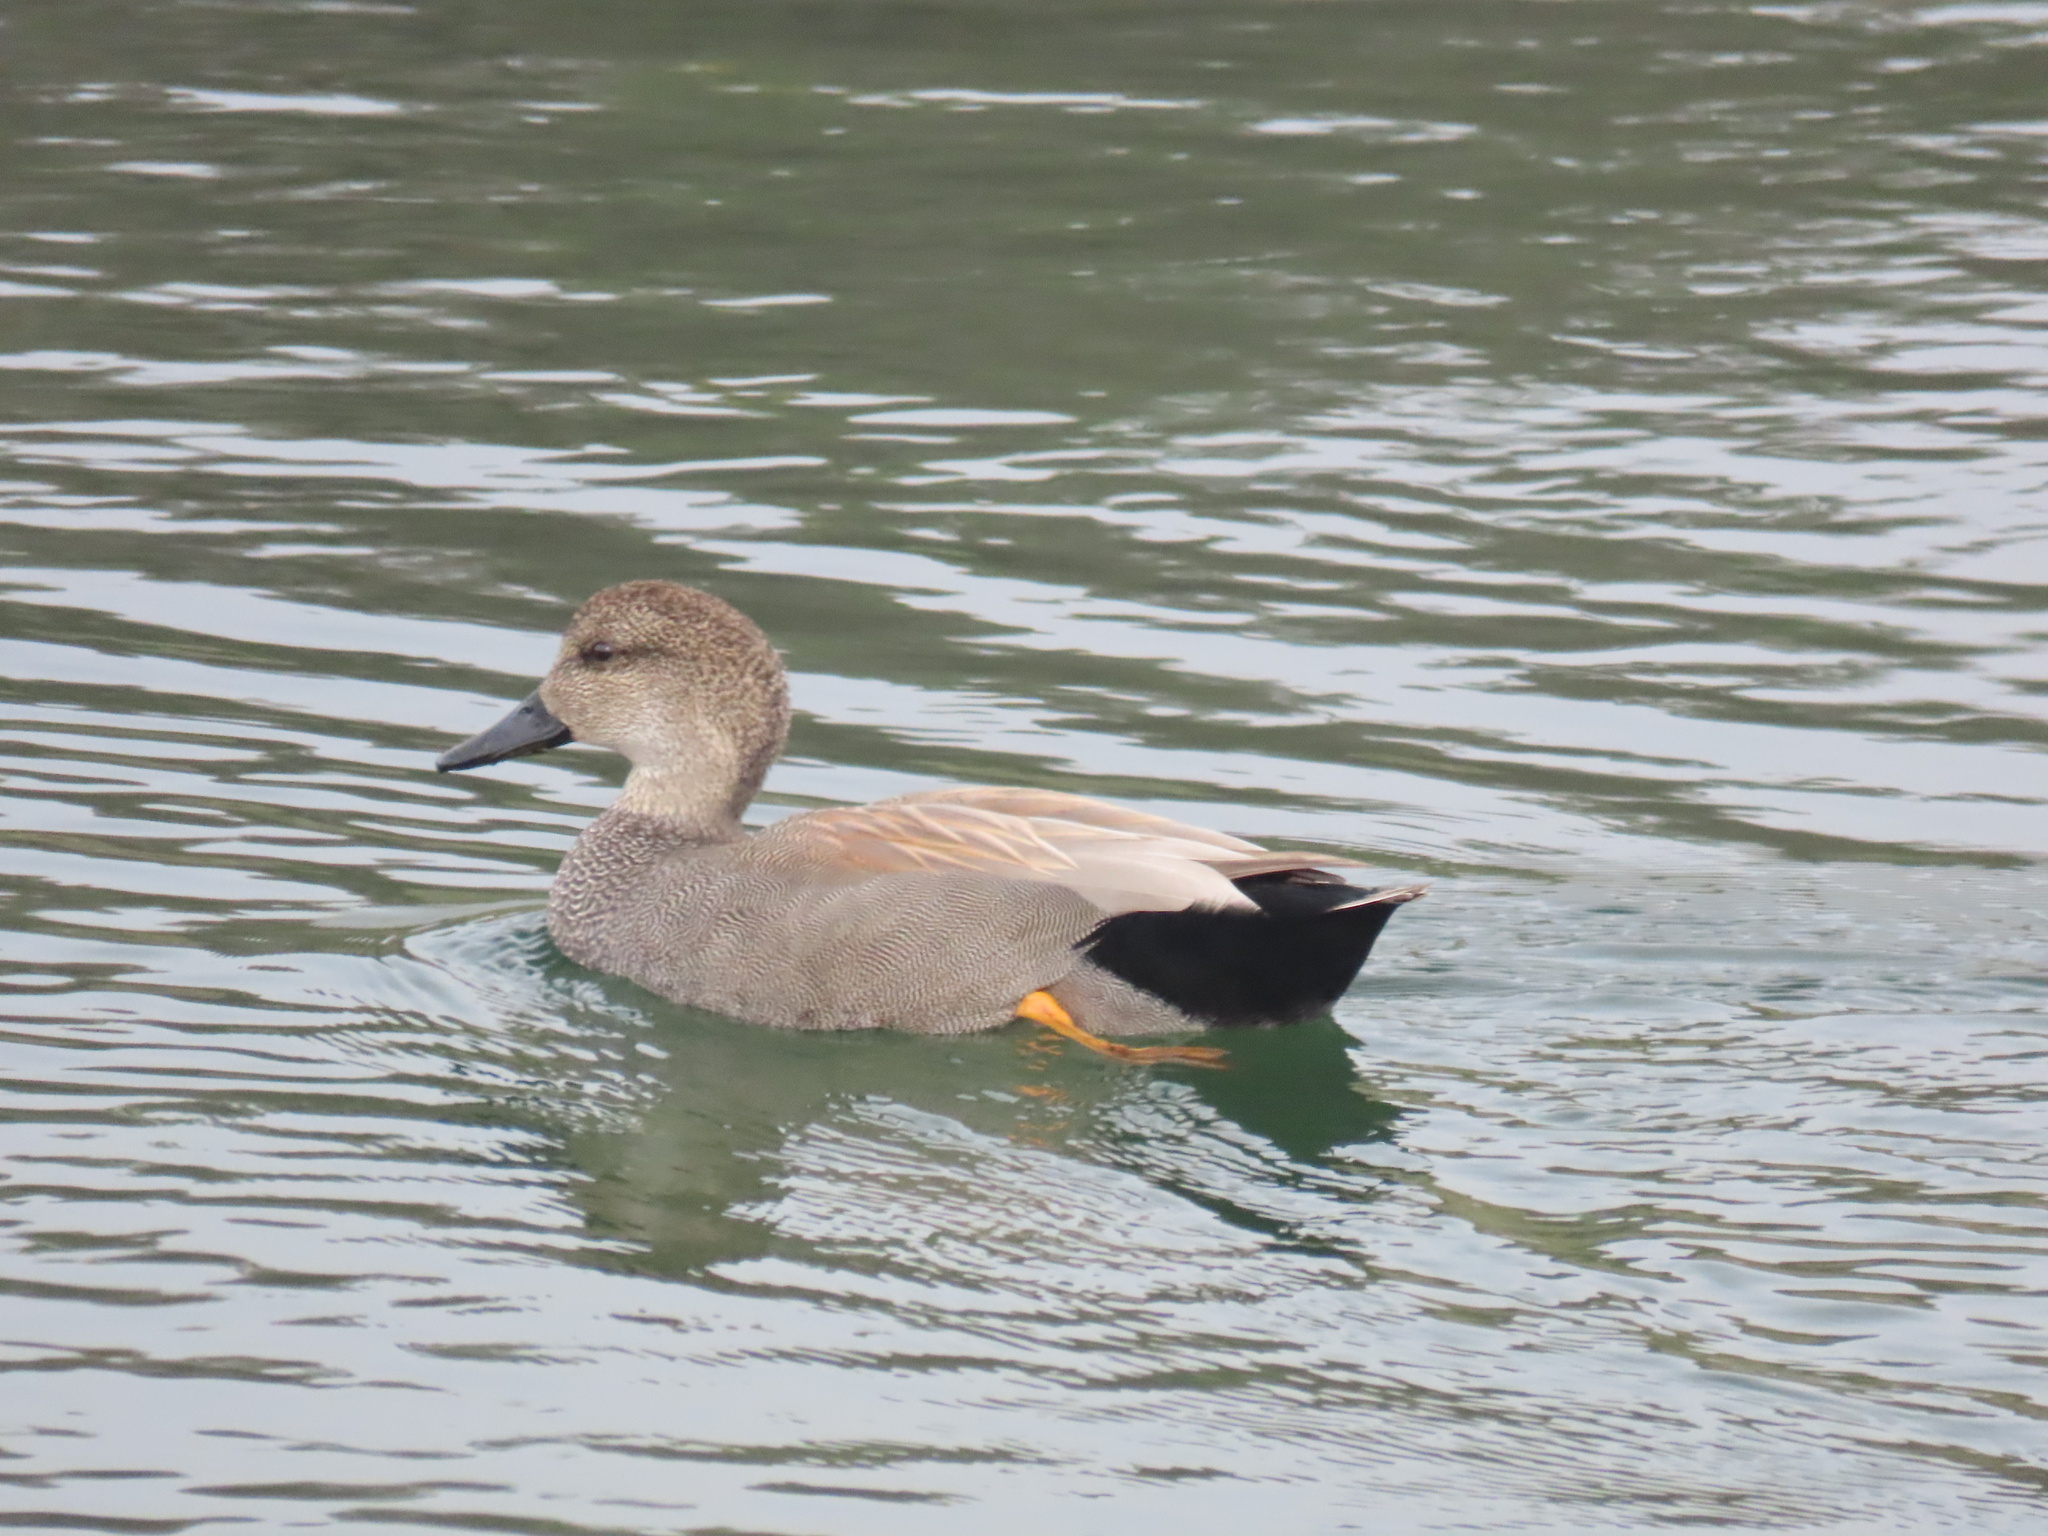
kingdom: Animalia
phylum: Chordata
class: Aves
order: Anseriformes
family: Anatidae
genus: Mareca
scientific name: Mareca strepera
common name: Gadwall
